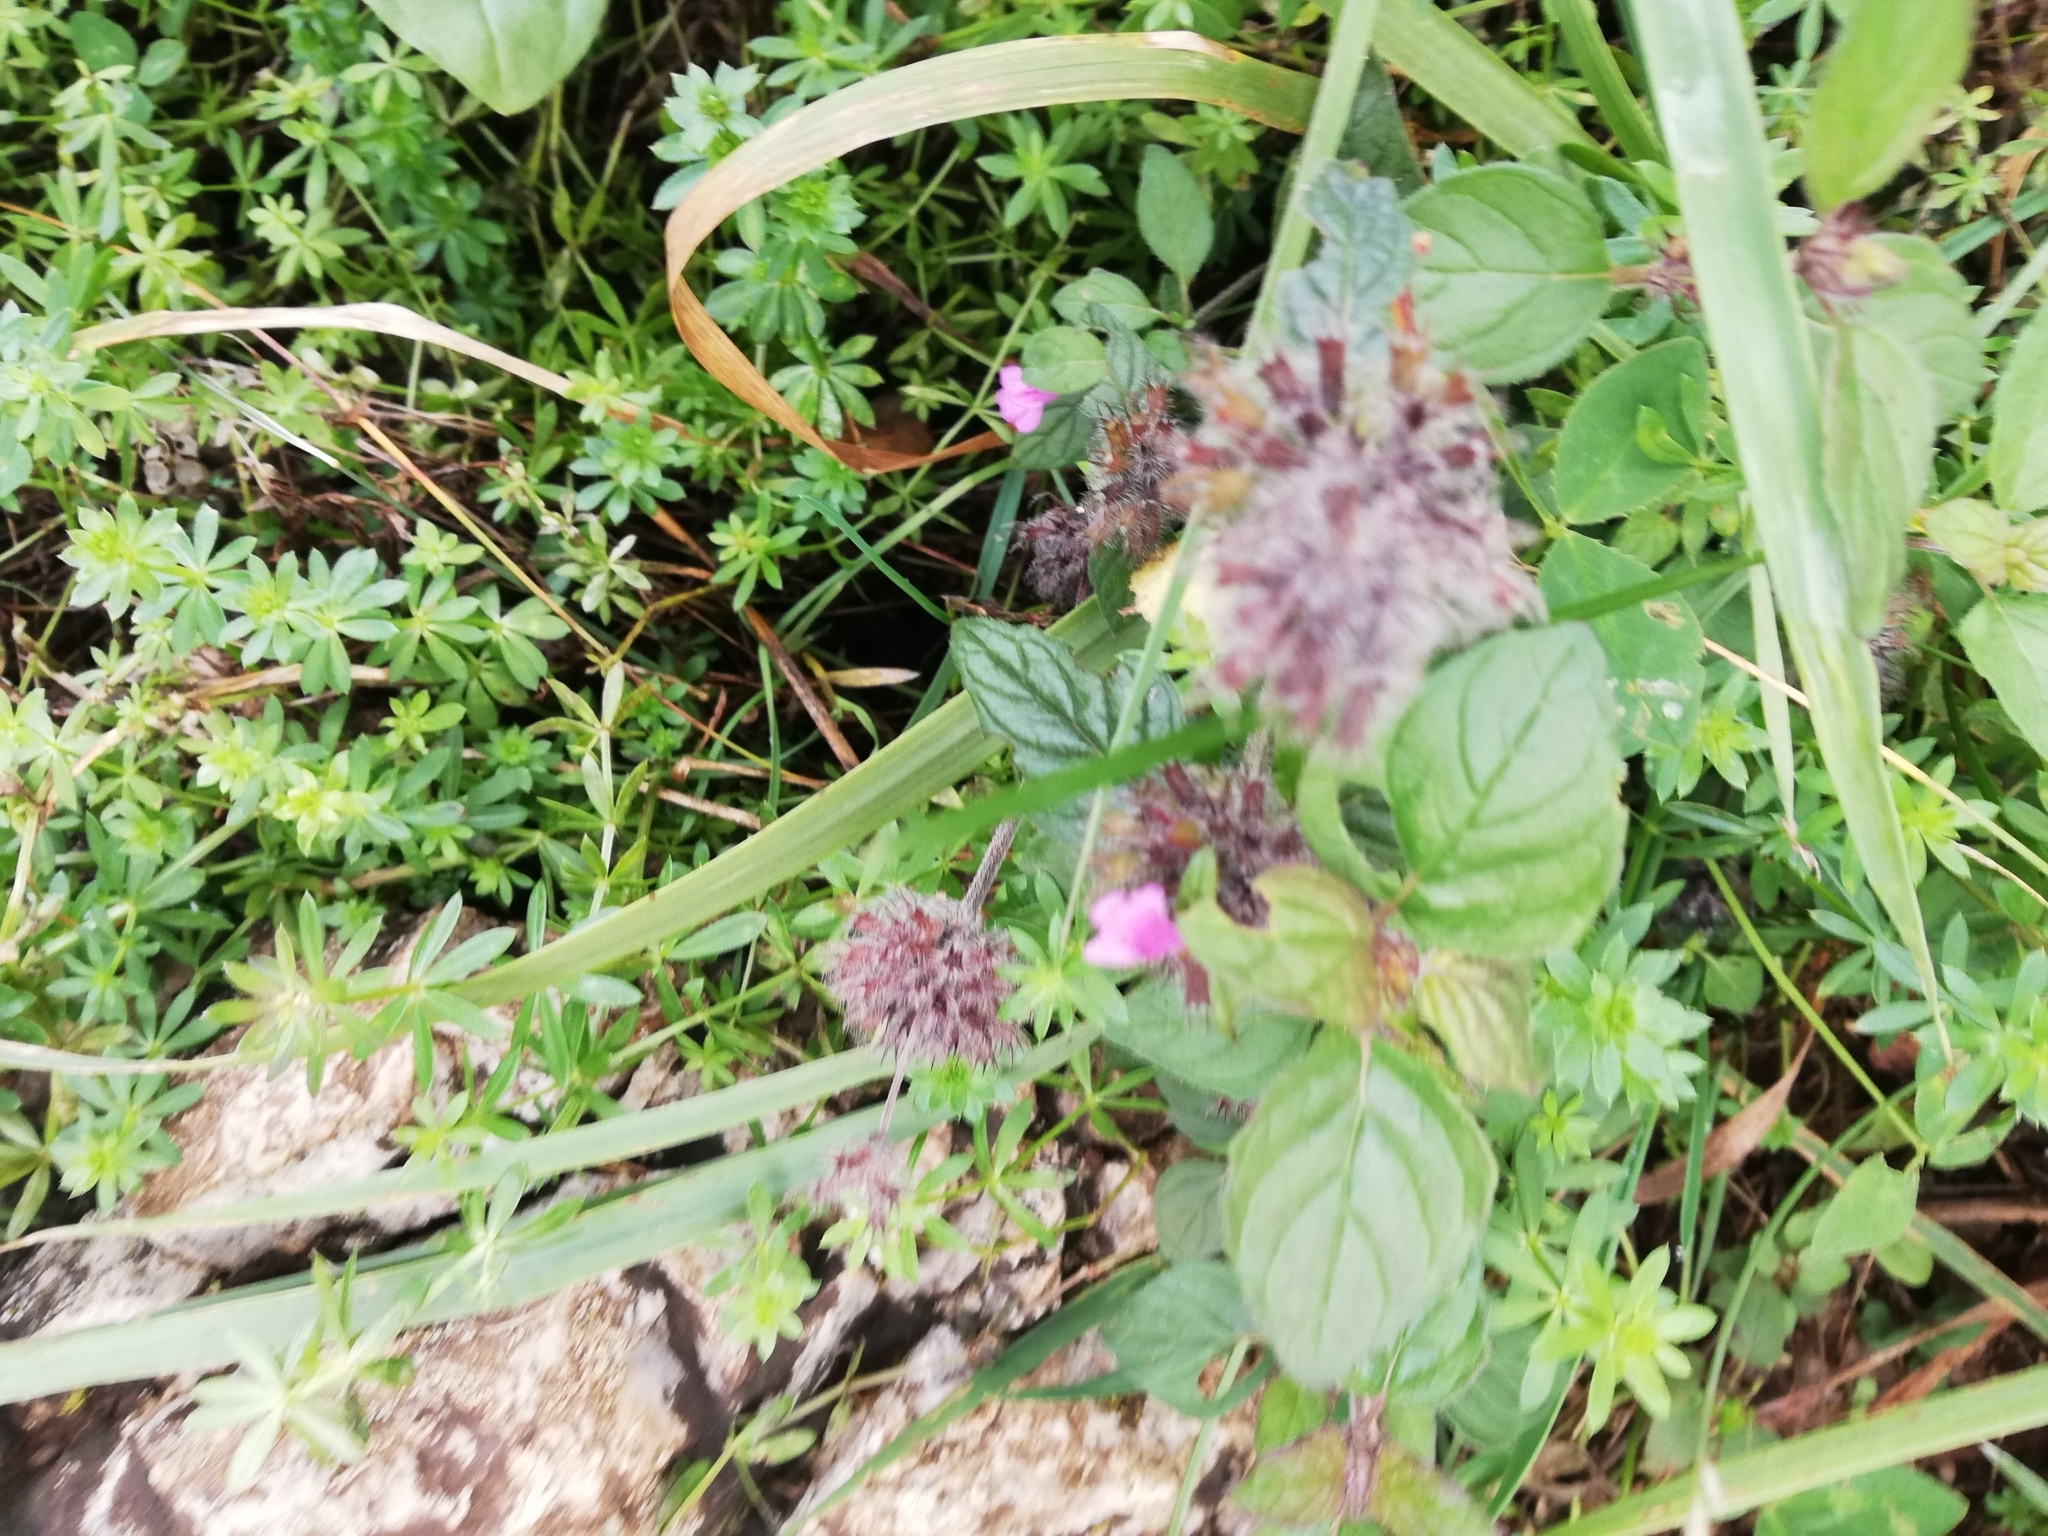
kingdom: Plantae
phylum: Tracheophyta
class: Magnoliopsida
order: Lamiales
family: Lamiaceae
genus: Clinopodium
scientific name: Clinopodium vulgare
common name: Wild basil
